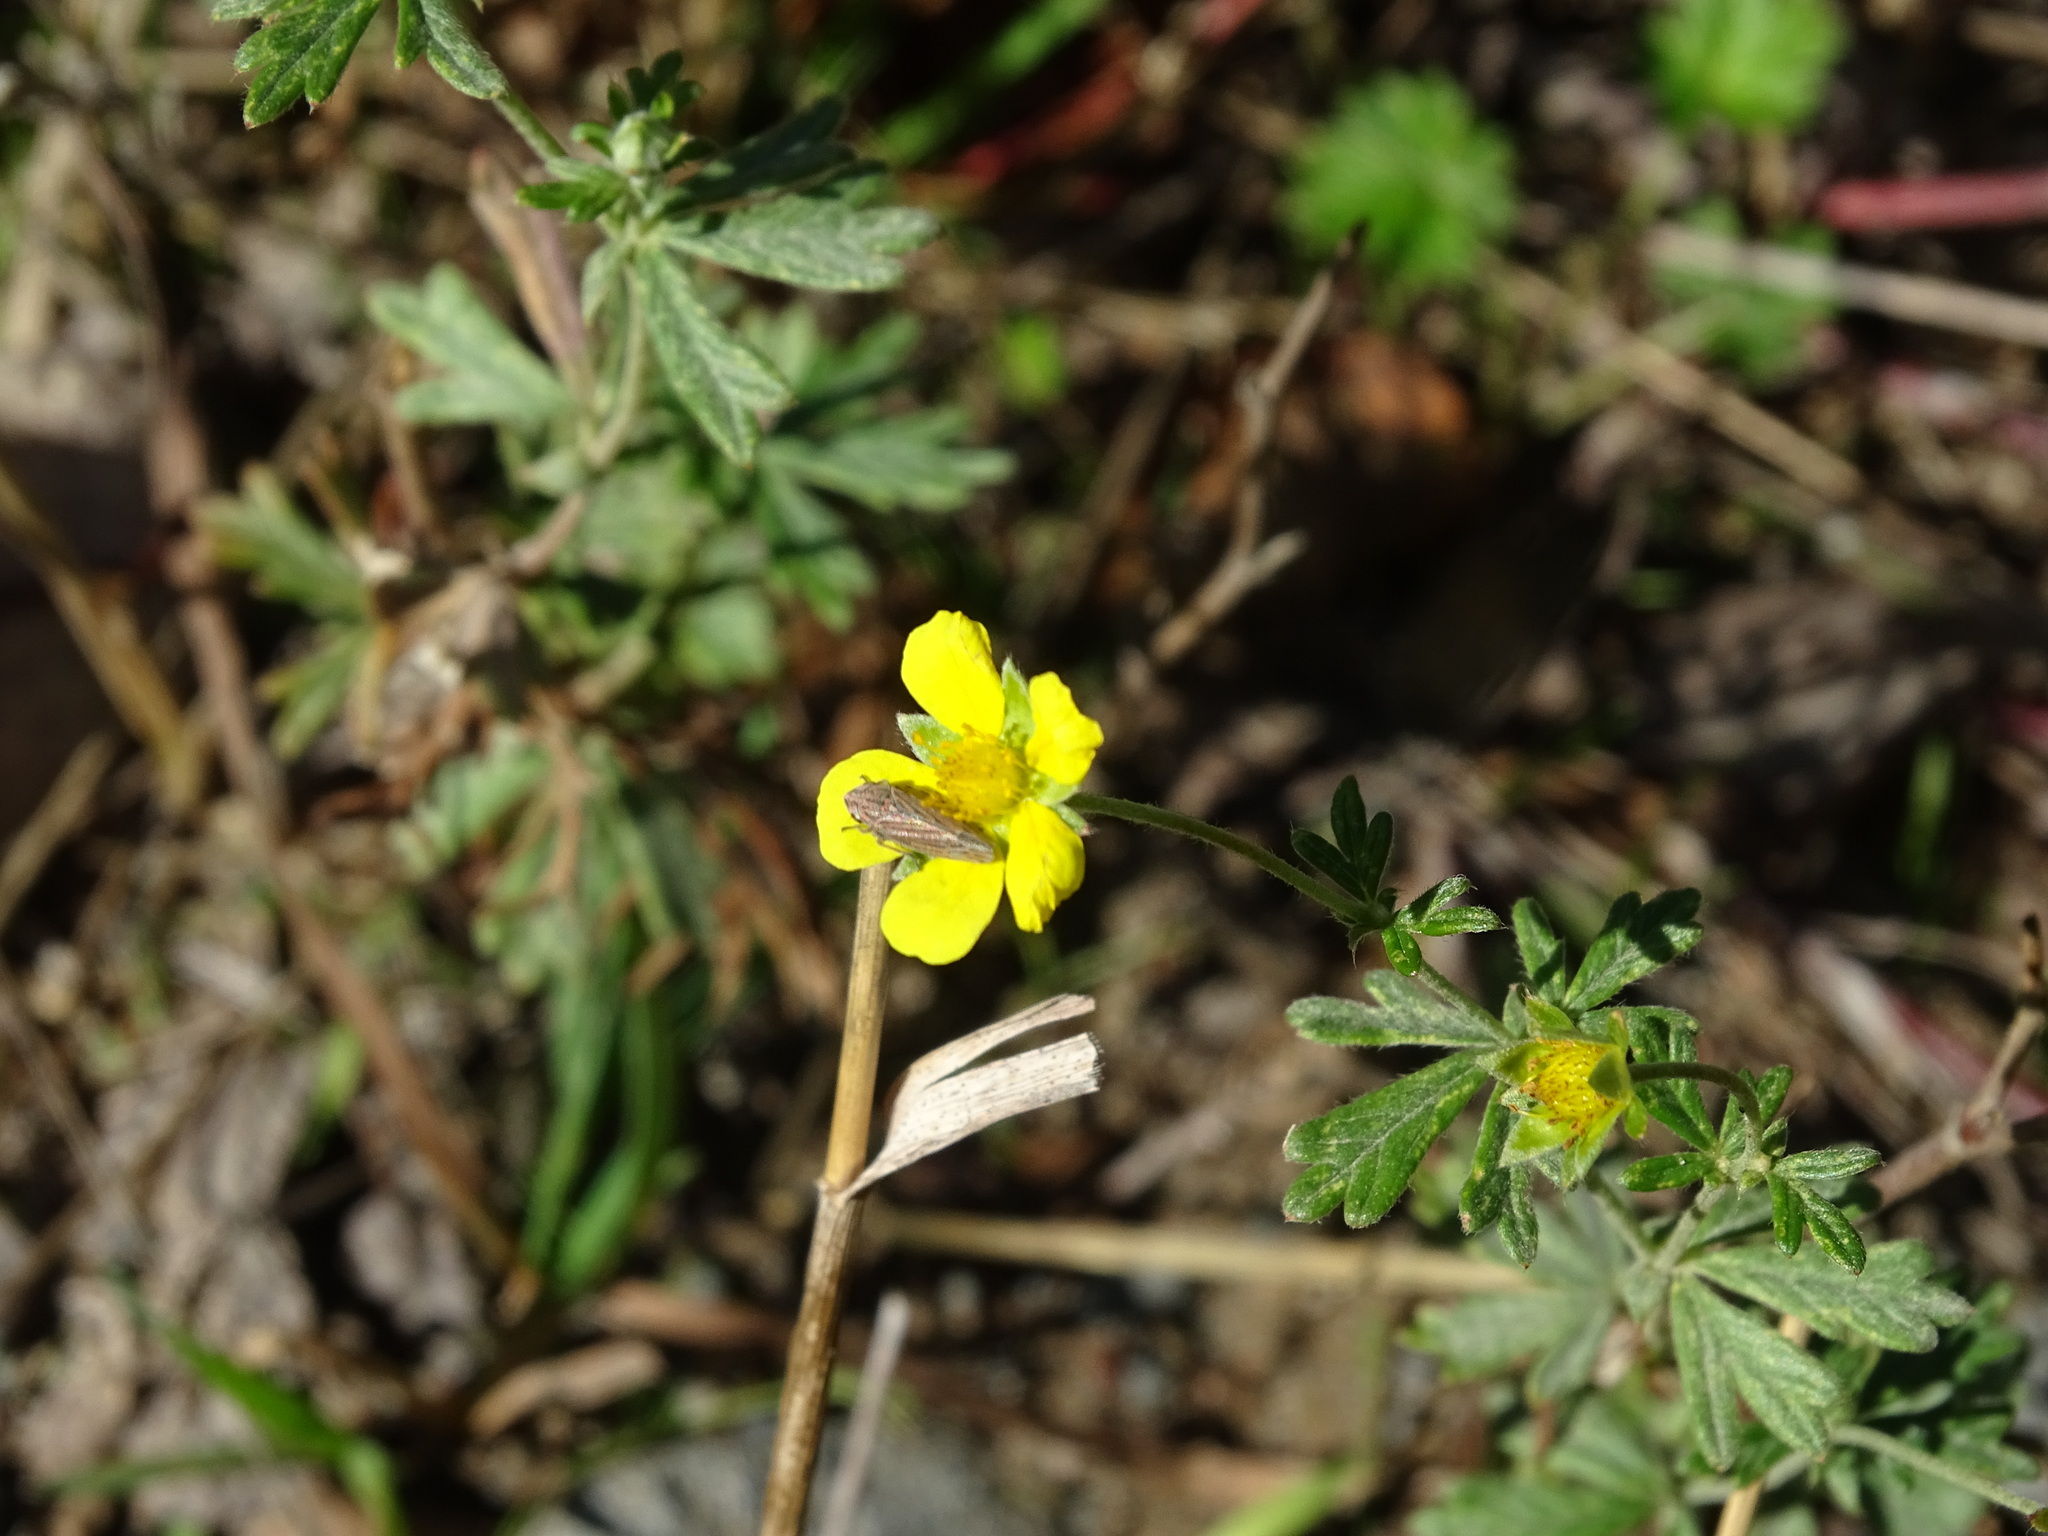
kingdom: Plantae
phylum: Tracheophyta
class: Magnoliopsida
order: Rosales
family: Rosaceae
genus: Potentilla
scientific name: Potentilla argentea
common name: Hoary cinquefoil
